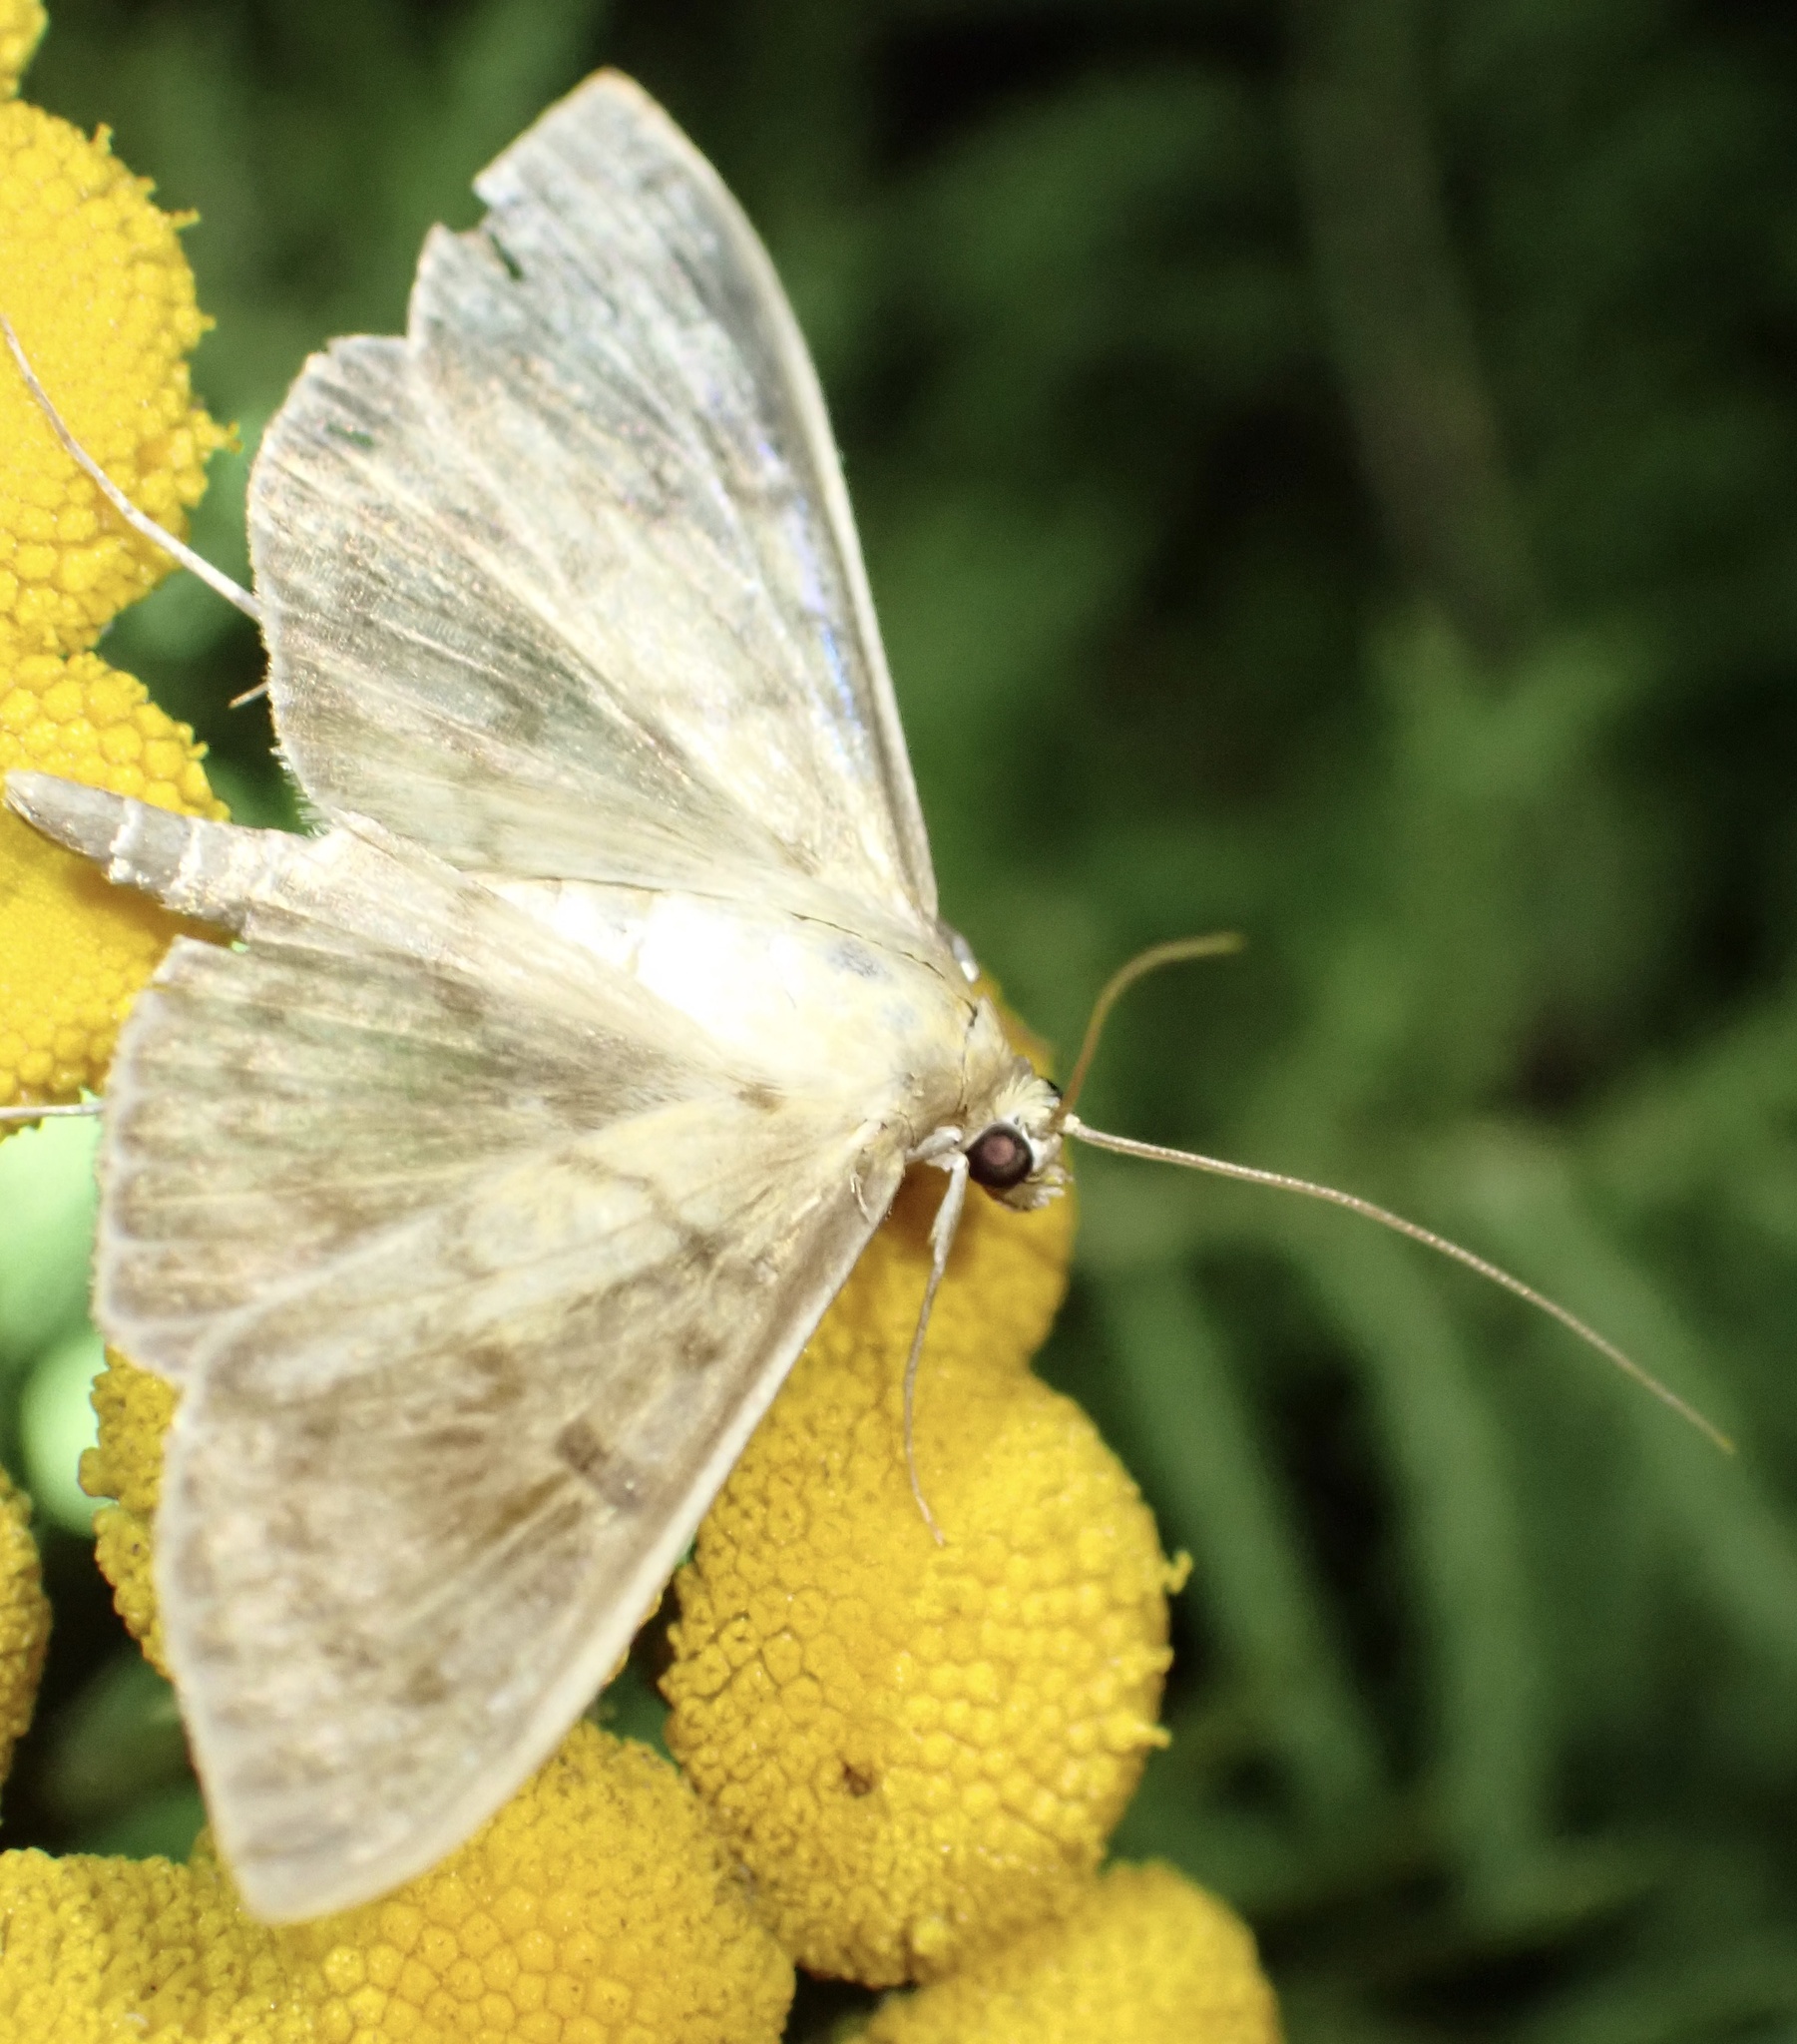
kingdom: Animalia
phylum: Arthropoda
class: Insecta
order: Lepidoptera
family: Crambidae
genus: Patania
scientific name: Patania ruralis
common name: Mother of pearl
